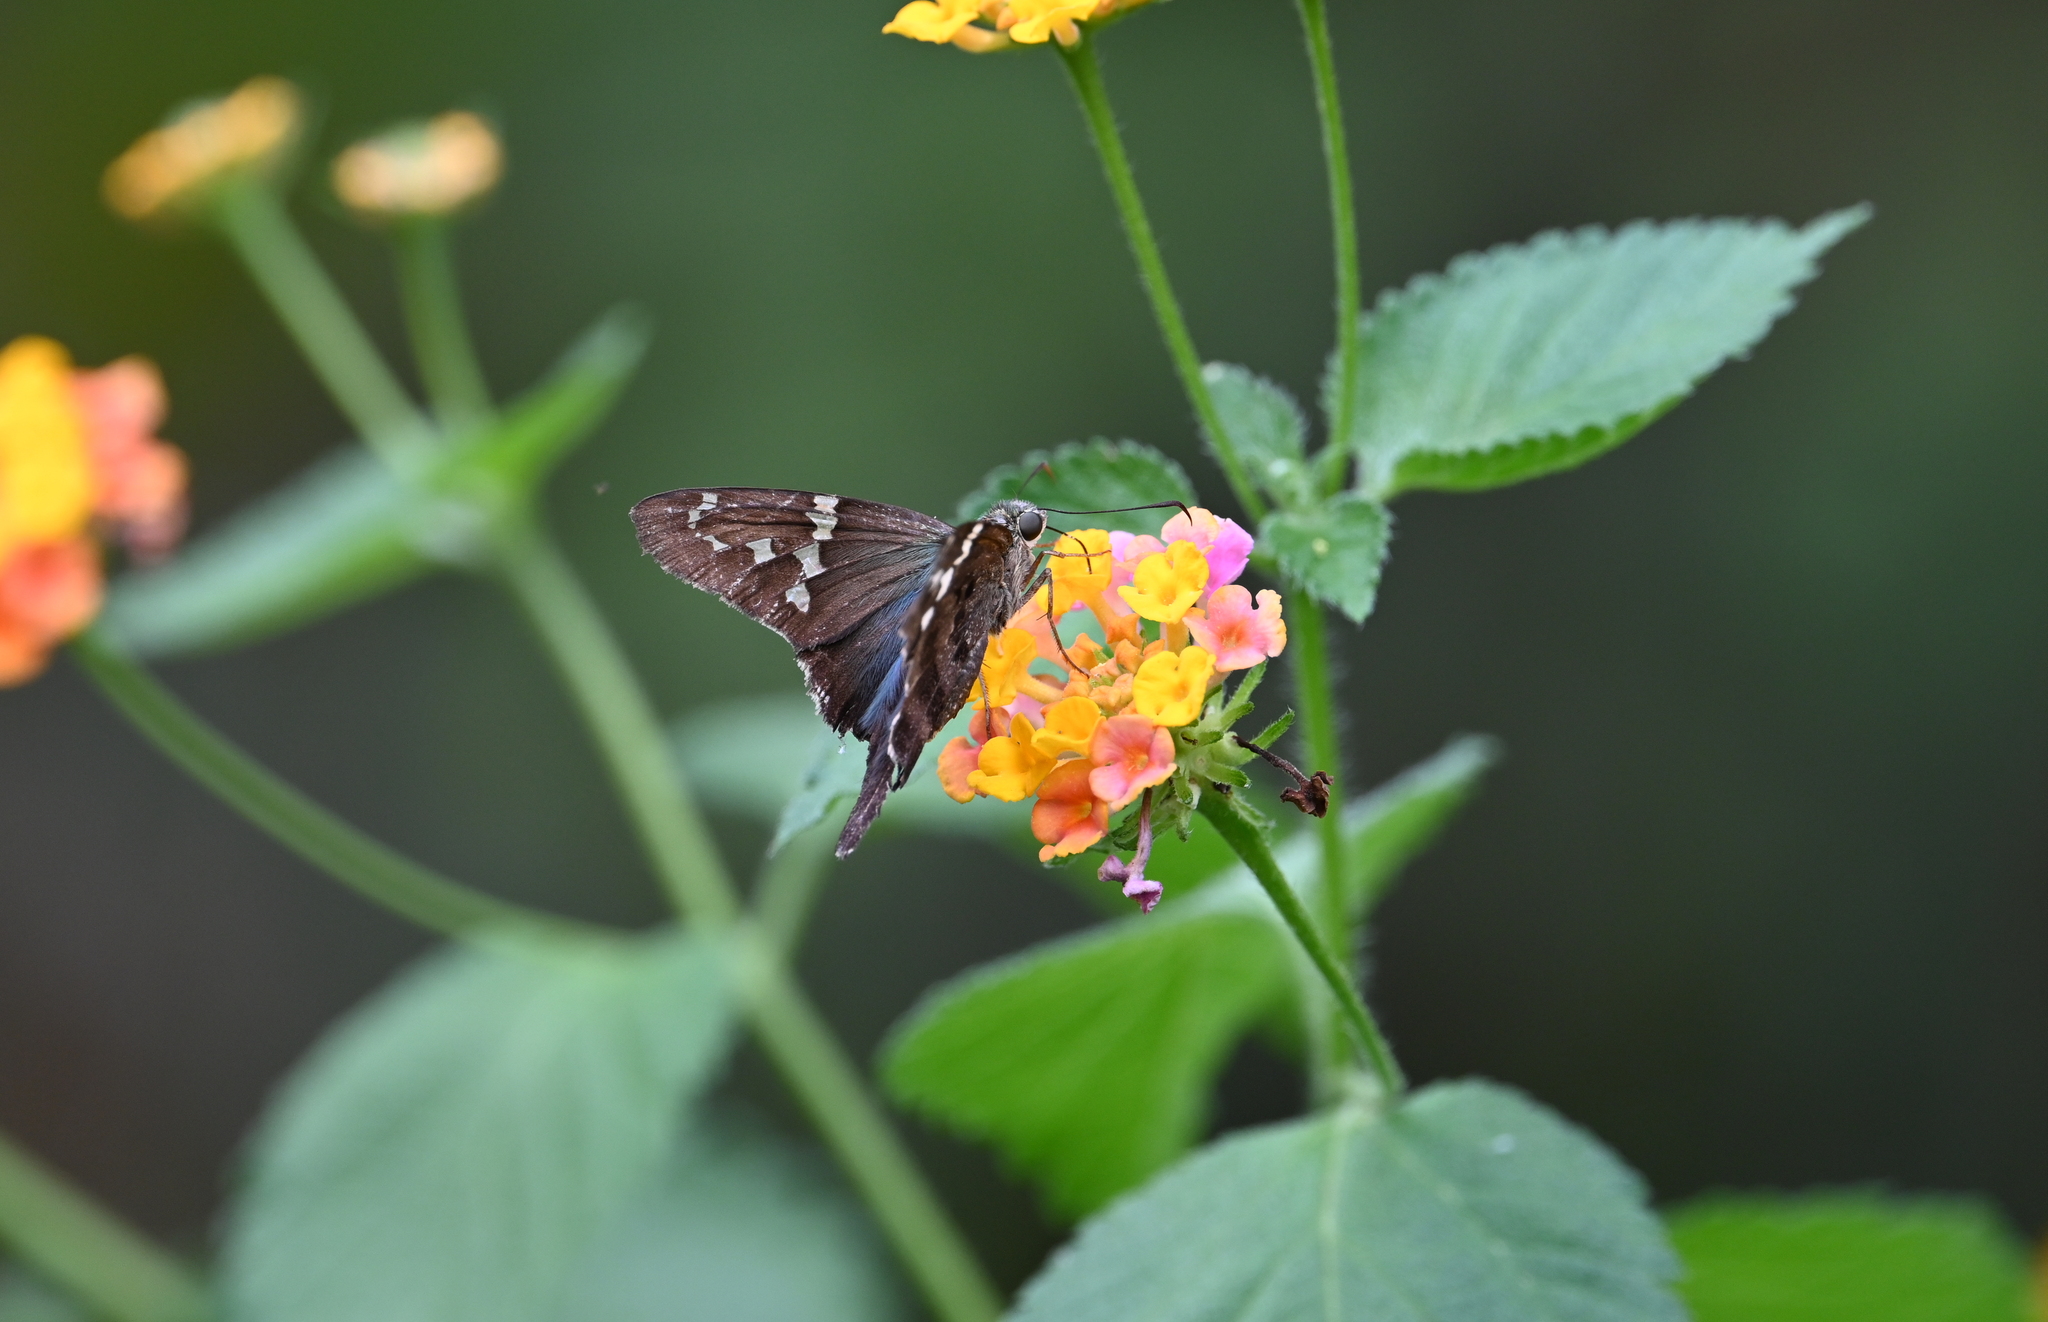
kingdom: Animalia
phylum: Arthropoda
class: Insecta
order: Lepidoptera
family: Hesperiidae
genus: Urbanus
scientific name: Urbanus proteus
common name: Long-tailed skipper
